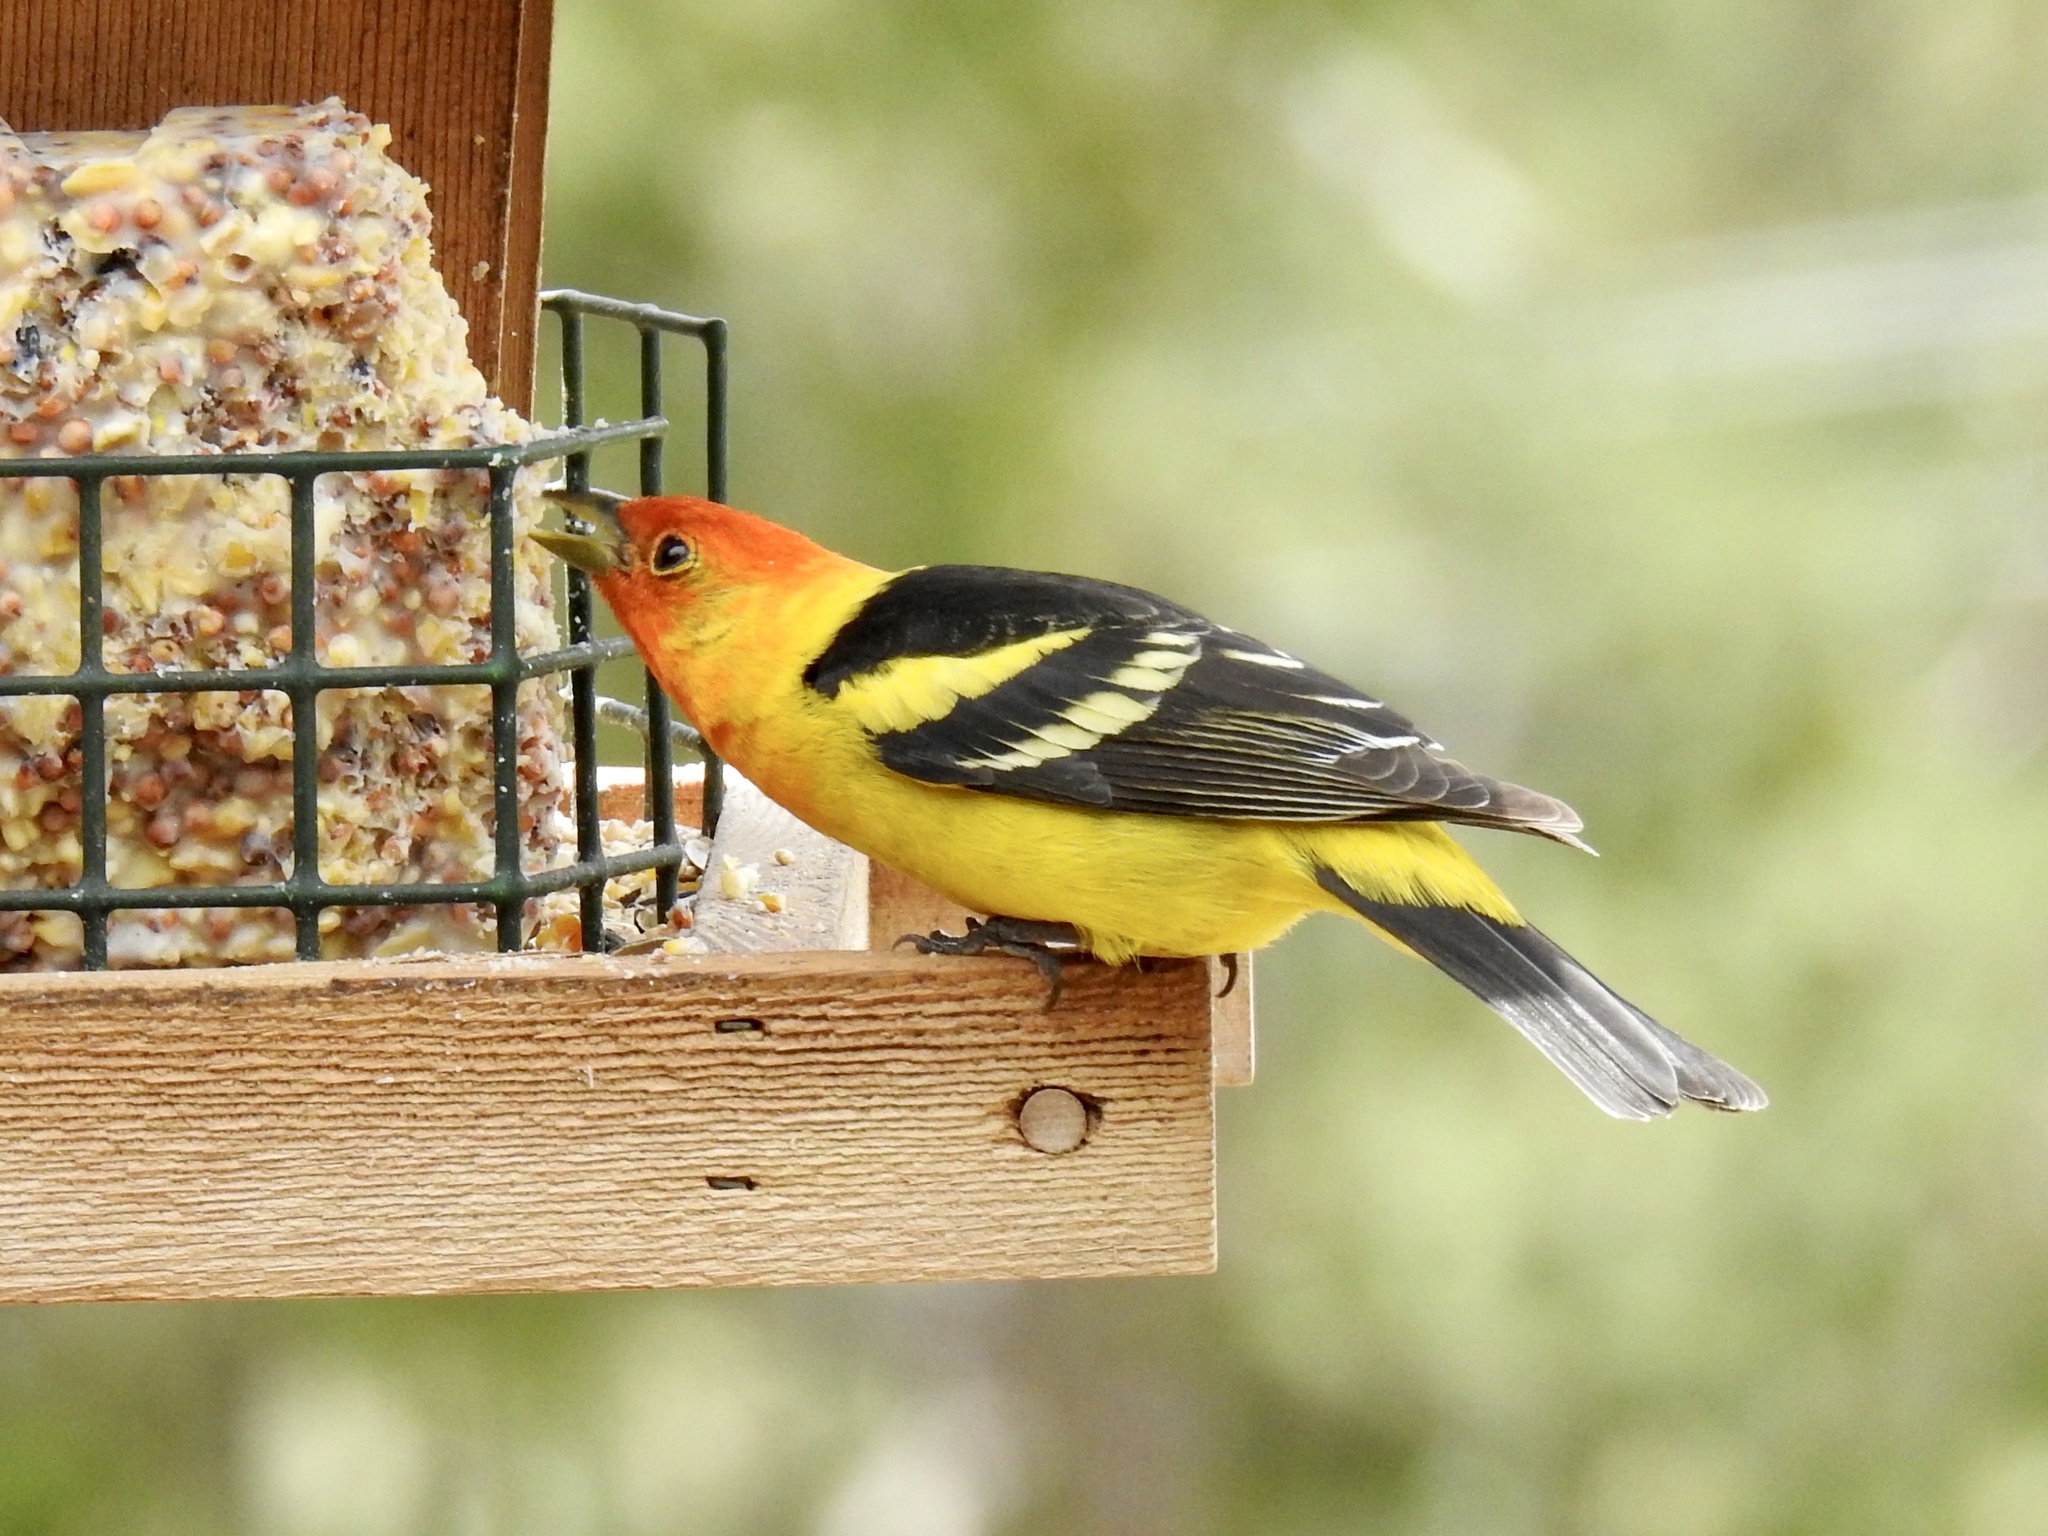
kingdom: Animalia
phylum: Chordata
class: Aves
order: Passeriformes
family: Cardinalidae
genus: Piranga
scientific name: Piranga ludoviciana
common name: Western tanager
